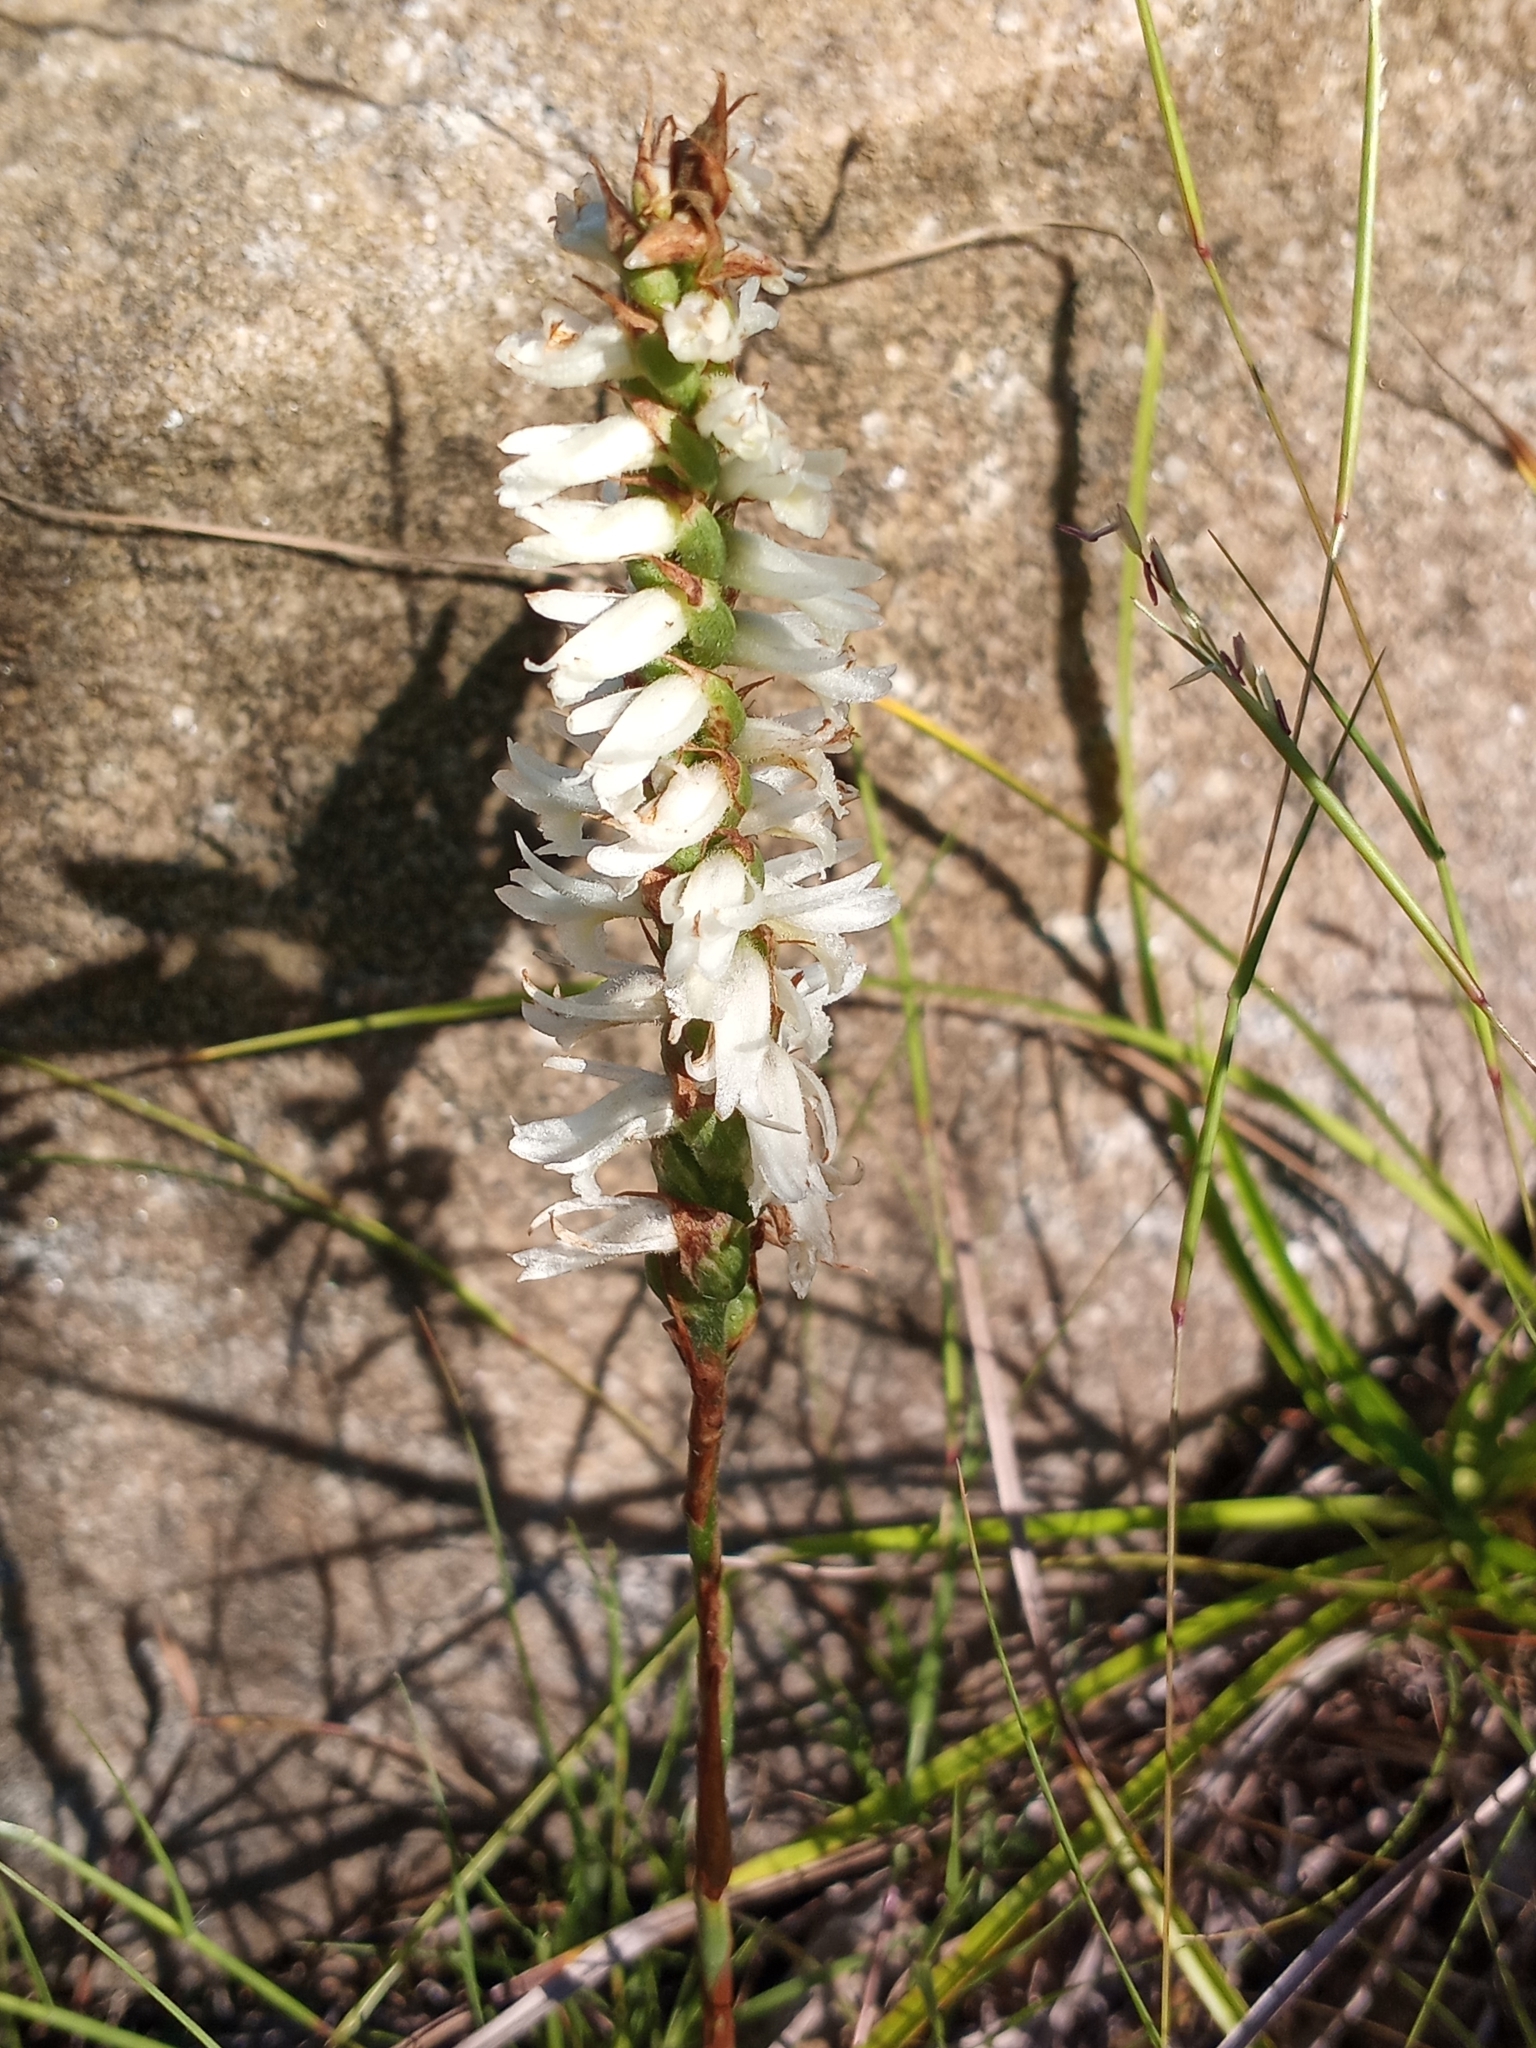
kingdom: Plantae
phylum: Tracheophyta
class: Liliopsida
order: Asparagales
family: Orchidaceae
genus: Spiranthes
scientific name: Spiranthes magnicamporum
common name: Great plains ladies'-tresses
